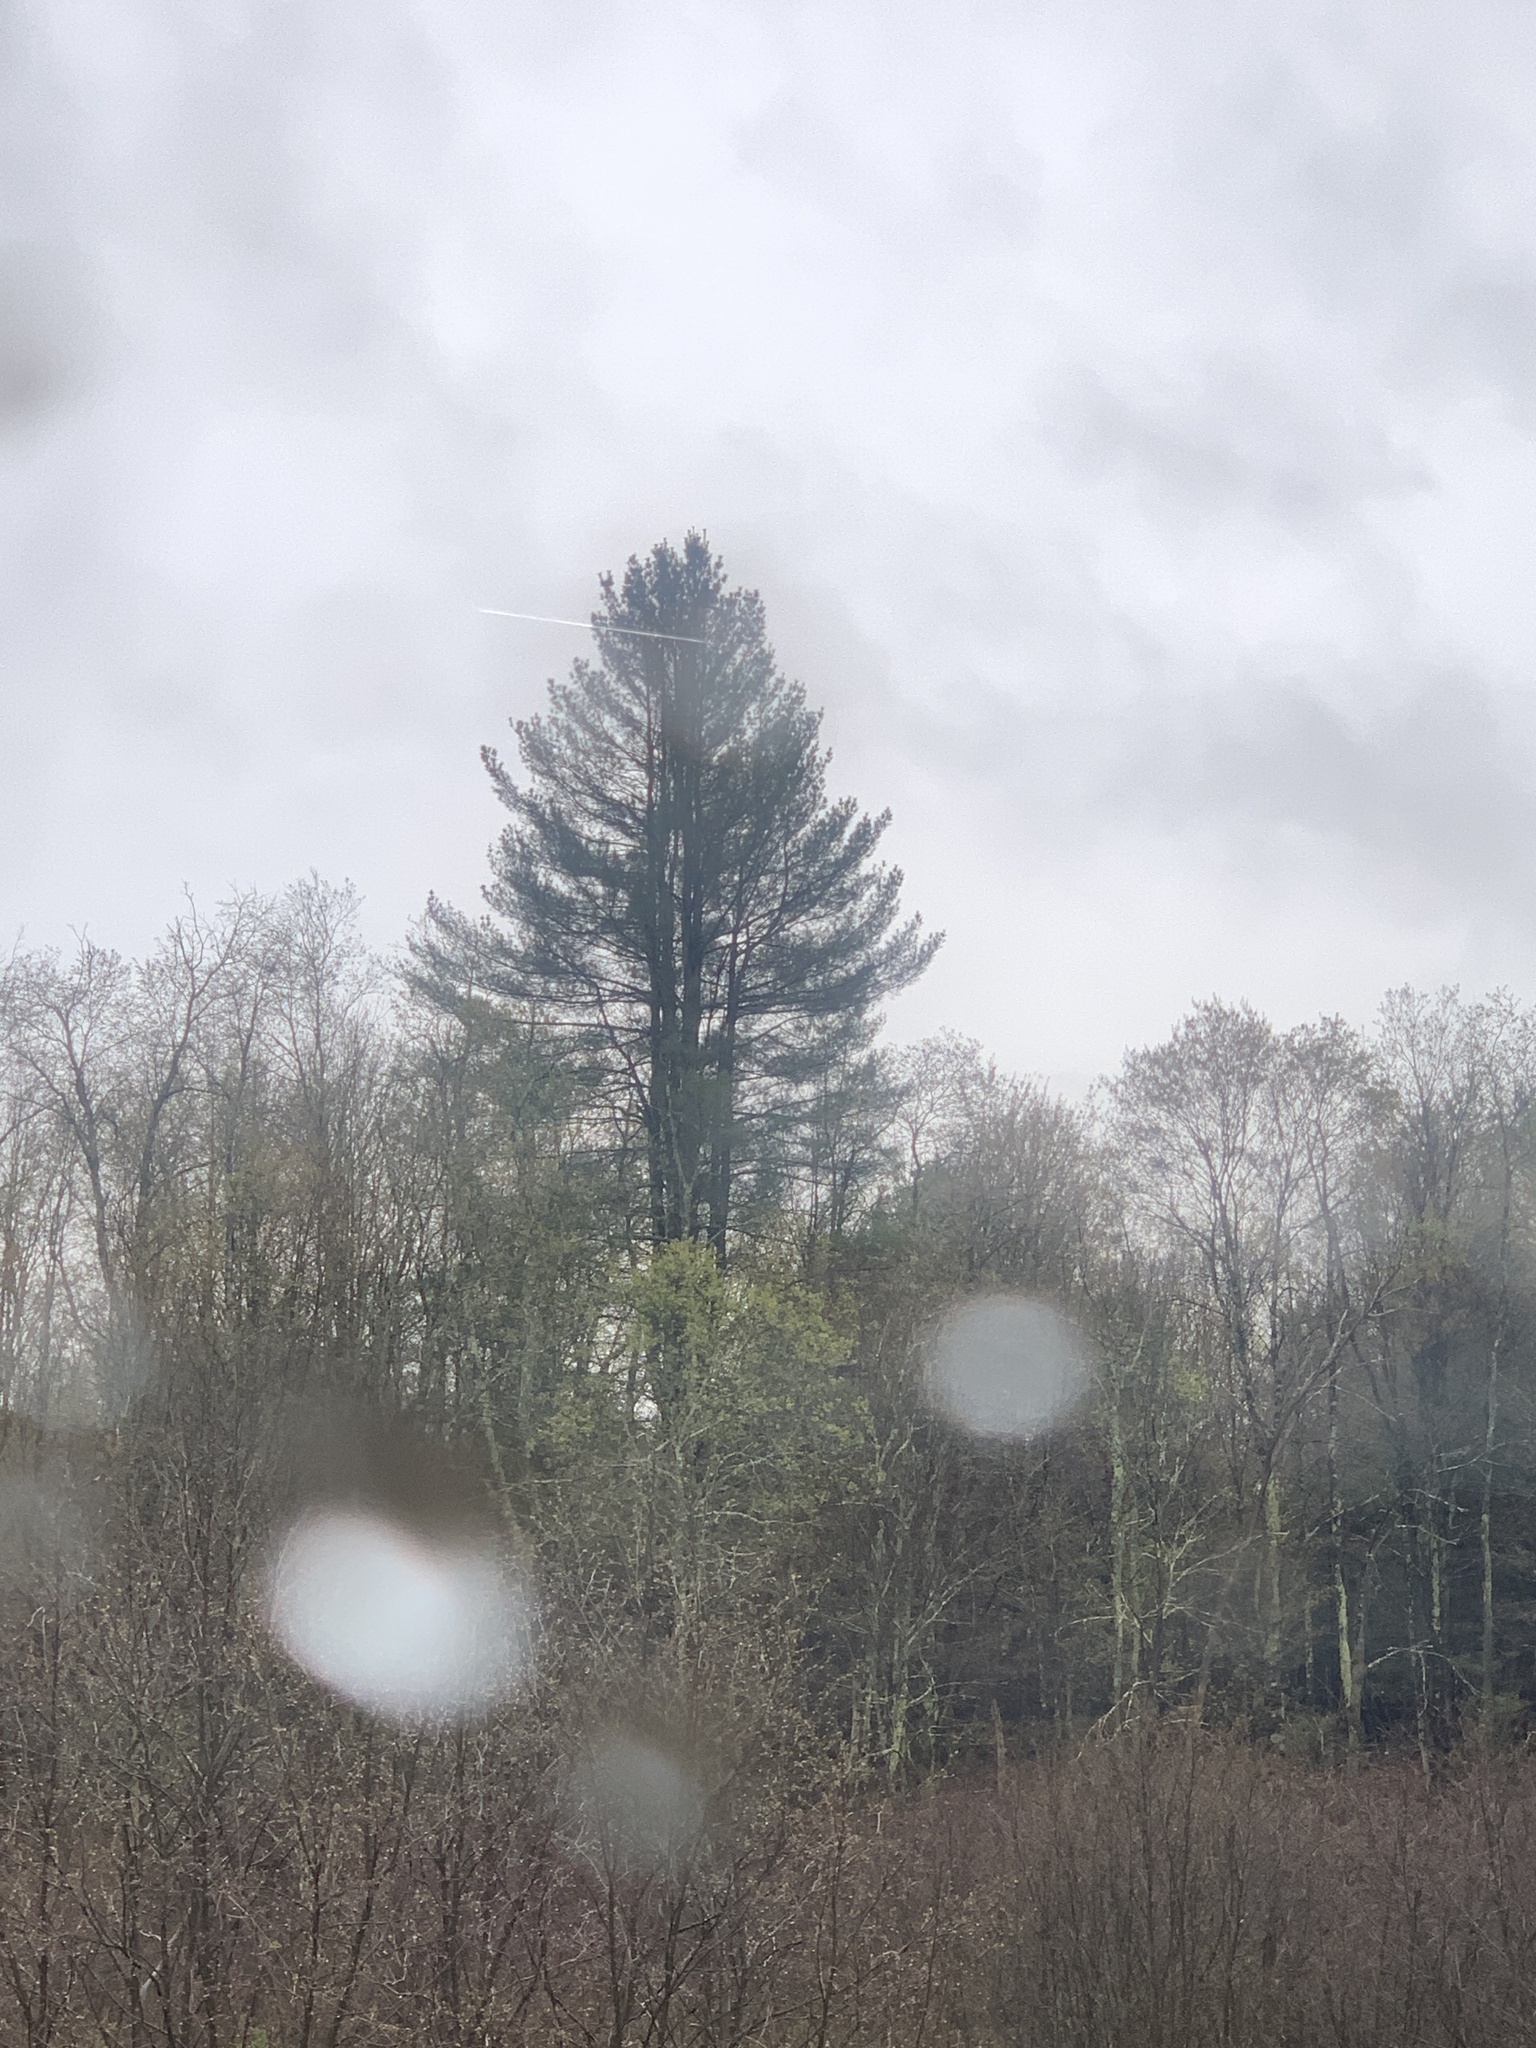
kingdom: Plantae
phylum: Tracheophyta
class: Pinopsida
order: Pinales
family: Pinaceae
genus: Pinus
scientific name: Pinus strobus
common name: Weymouth pine
